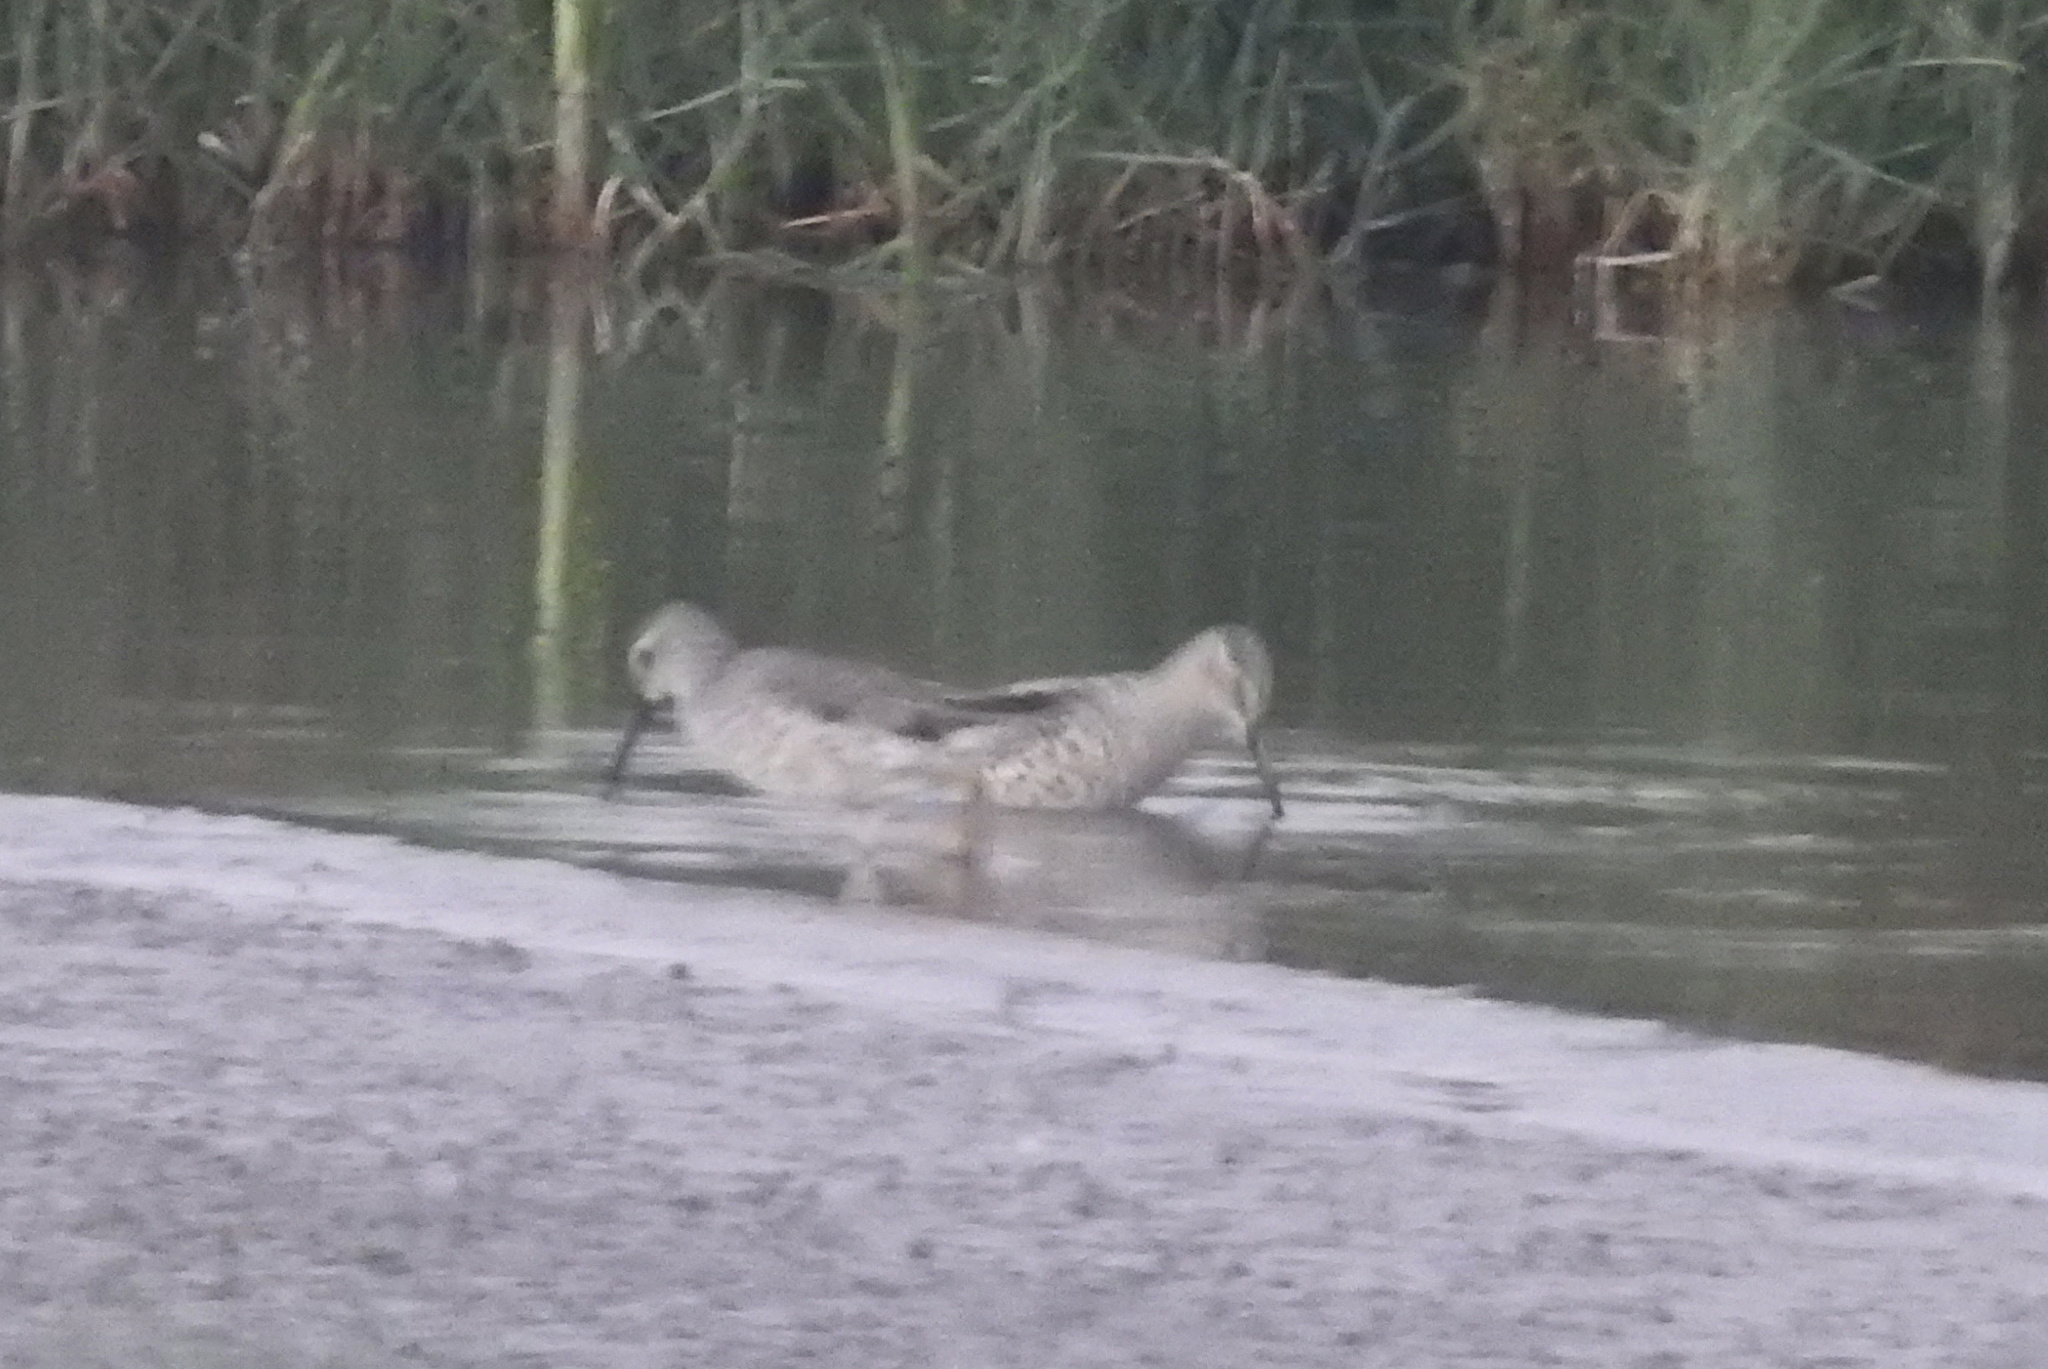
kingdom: Animalia
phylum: Chordata
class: Aves
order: Charadriiformes
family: Scolopacidae
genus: Calidris
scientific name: Calidris himantopus
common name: Stilt sandpiper
